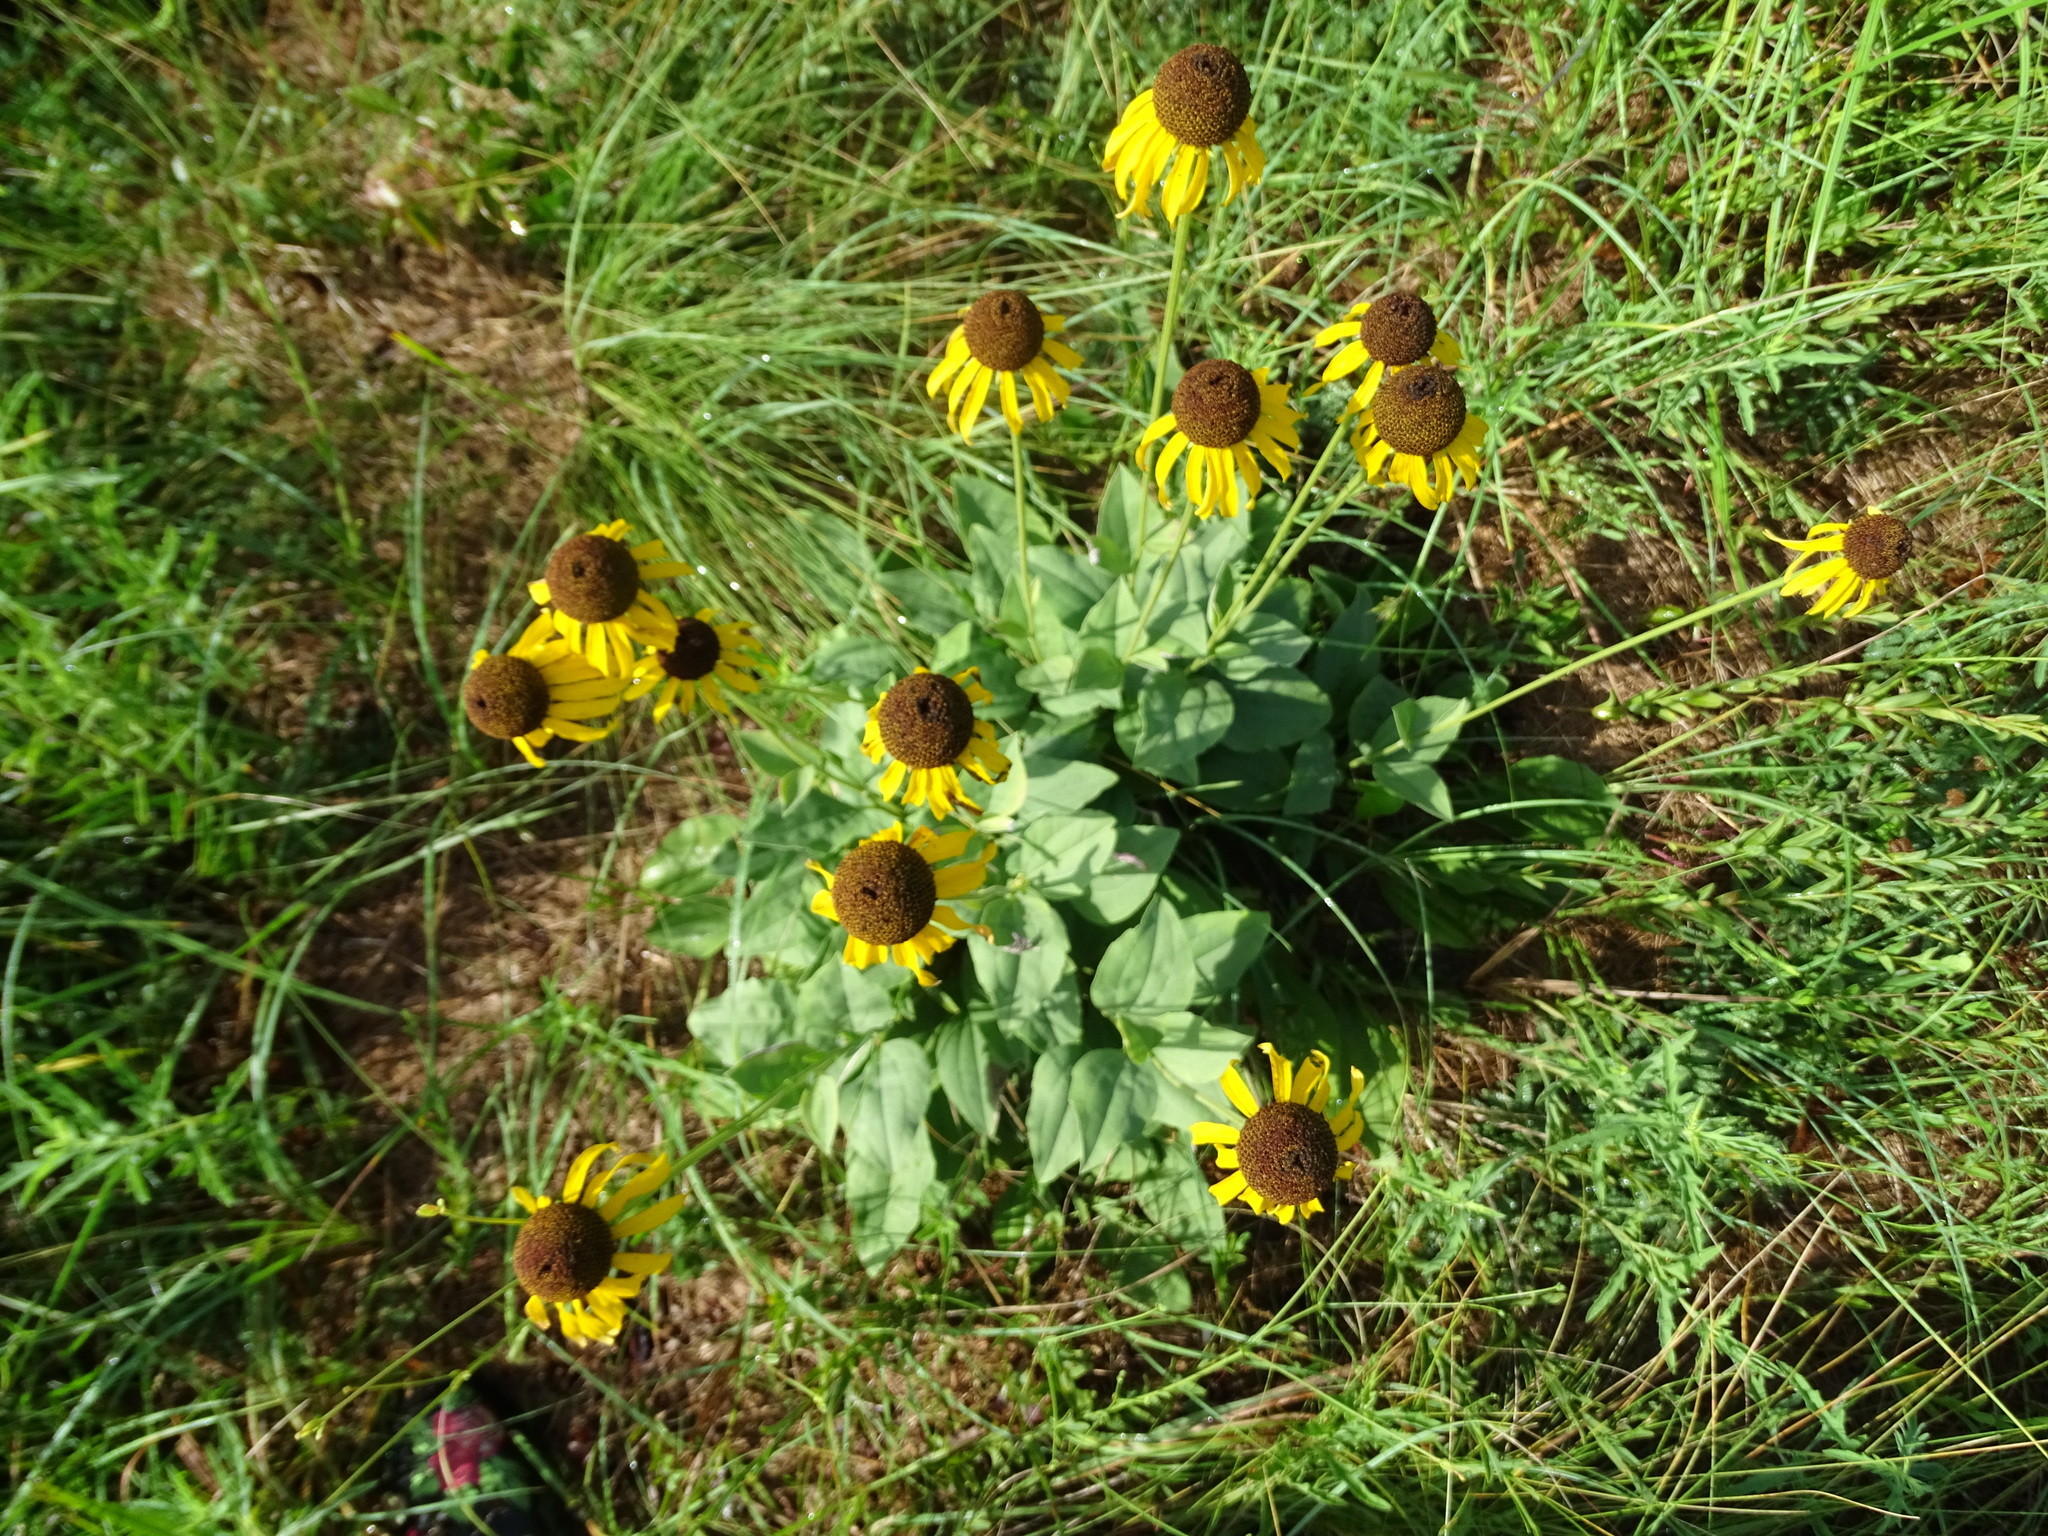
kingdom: Plantae
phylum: Tracheophyta
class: Magnoliopsida
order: Asterales
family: Asteraceae
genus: Rudbeckia
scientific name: Rudbeckia grandiflora
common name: Large-flowered coneflower
